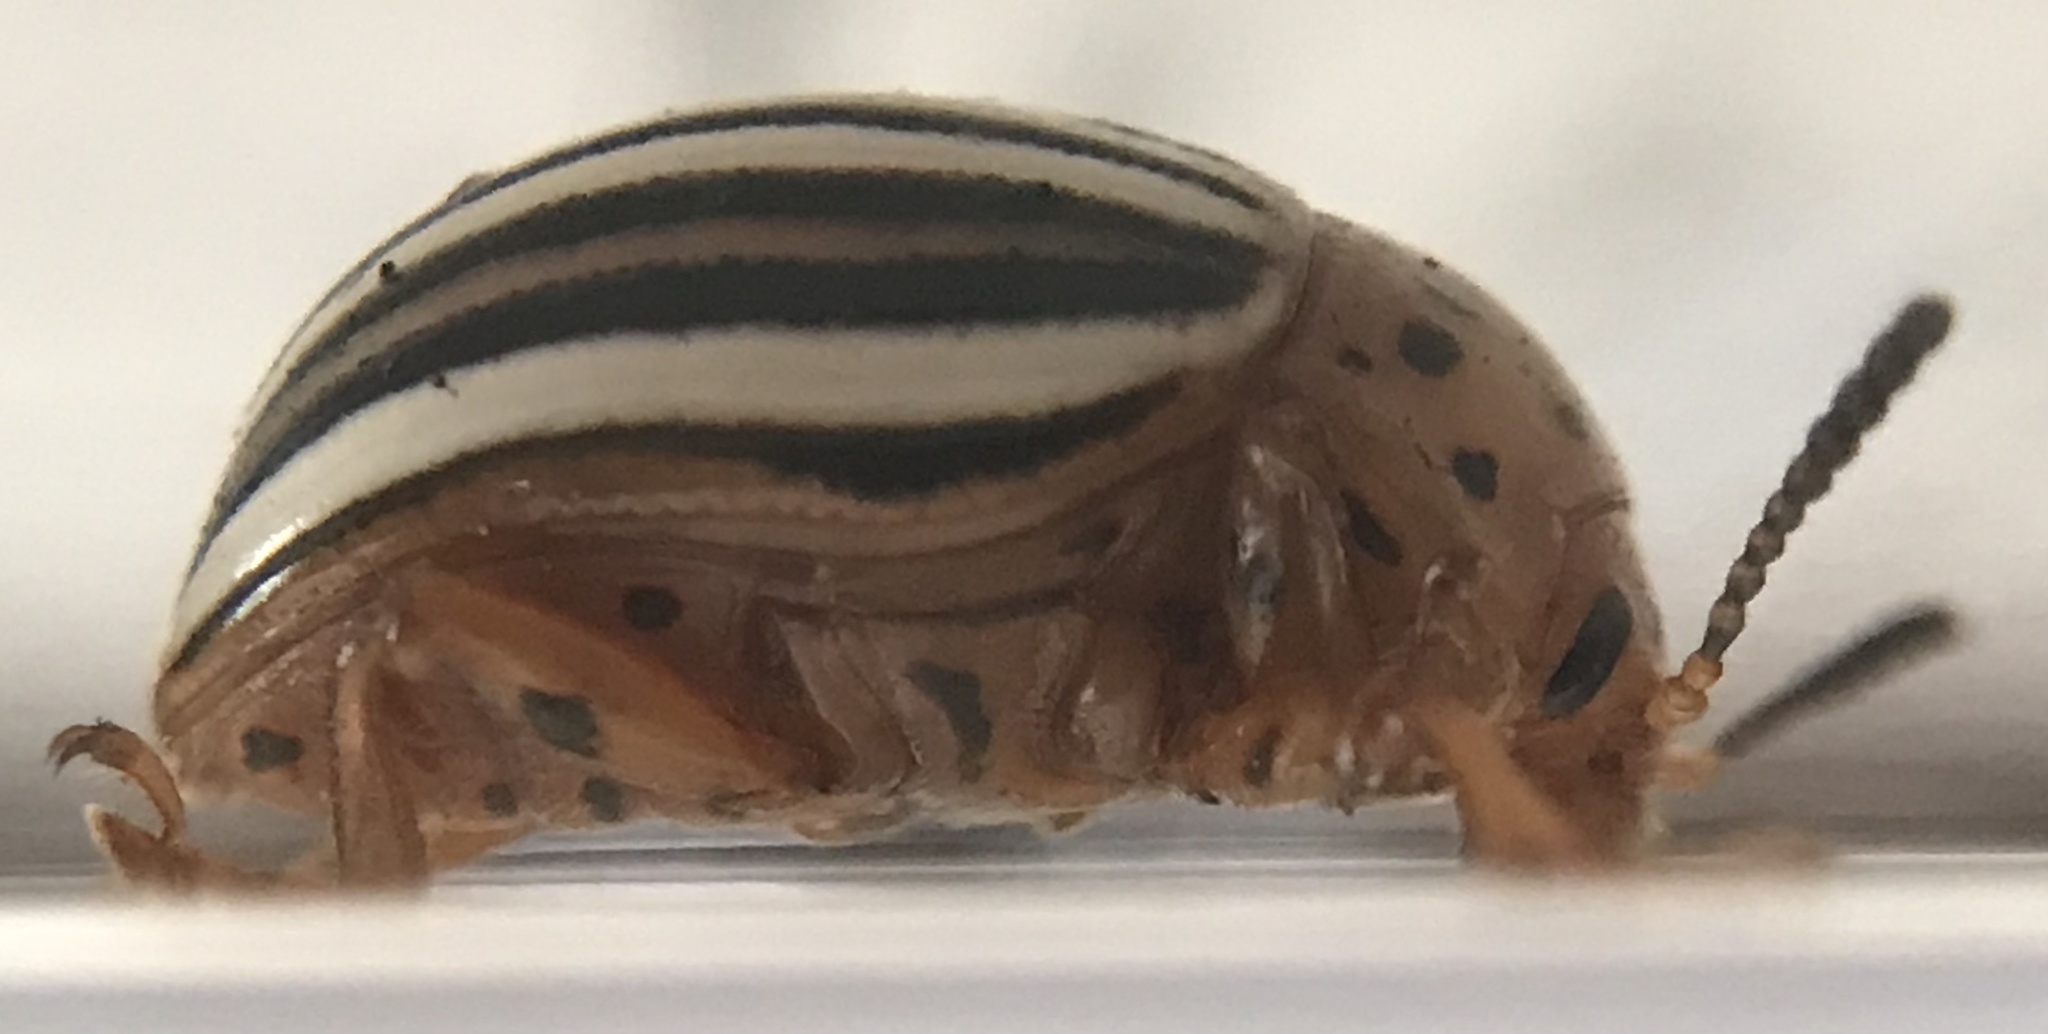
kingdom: Animalia
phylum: Arthropoda
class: Insecta
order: Coleoptera
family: Chrysomelidae
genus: Leptinotarsa
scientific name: Leptinotarsa juncta
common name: False potato beetle
